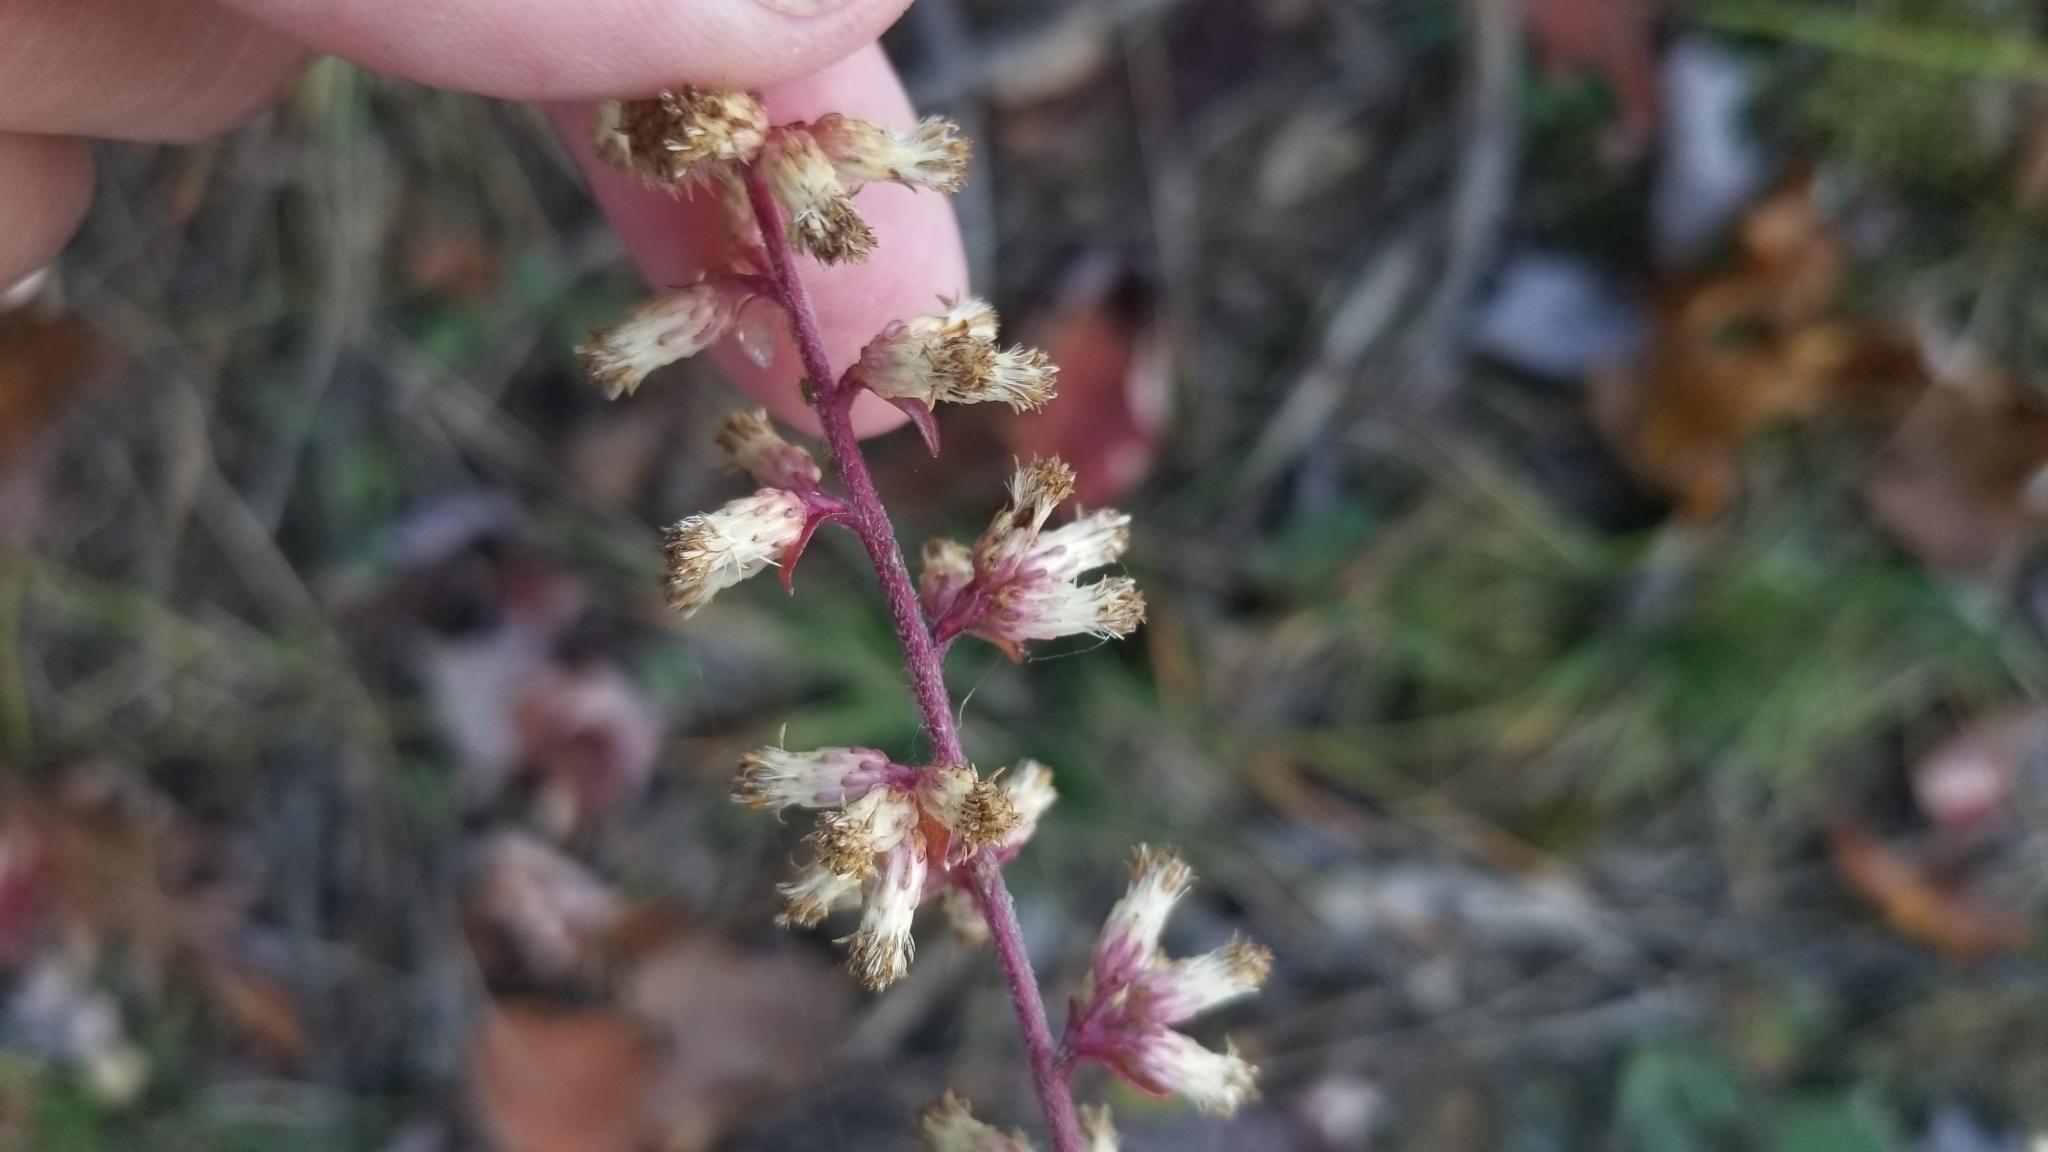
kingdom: Plantae
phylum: Tracheophyta
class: Magnoliopsida
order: Asterales
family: Asteraceae
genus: Solidago
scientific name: Solidago bicolor
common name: Silverrod
